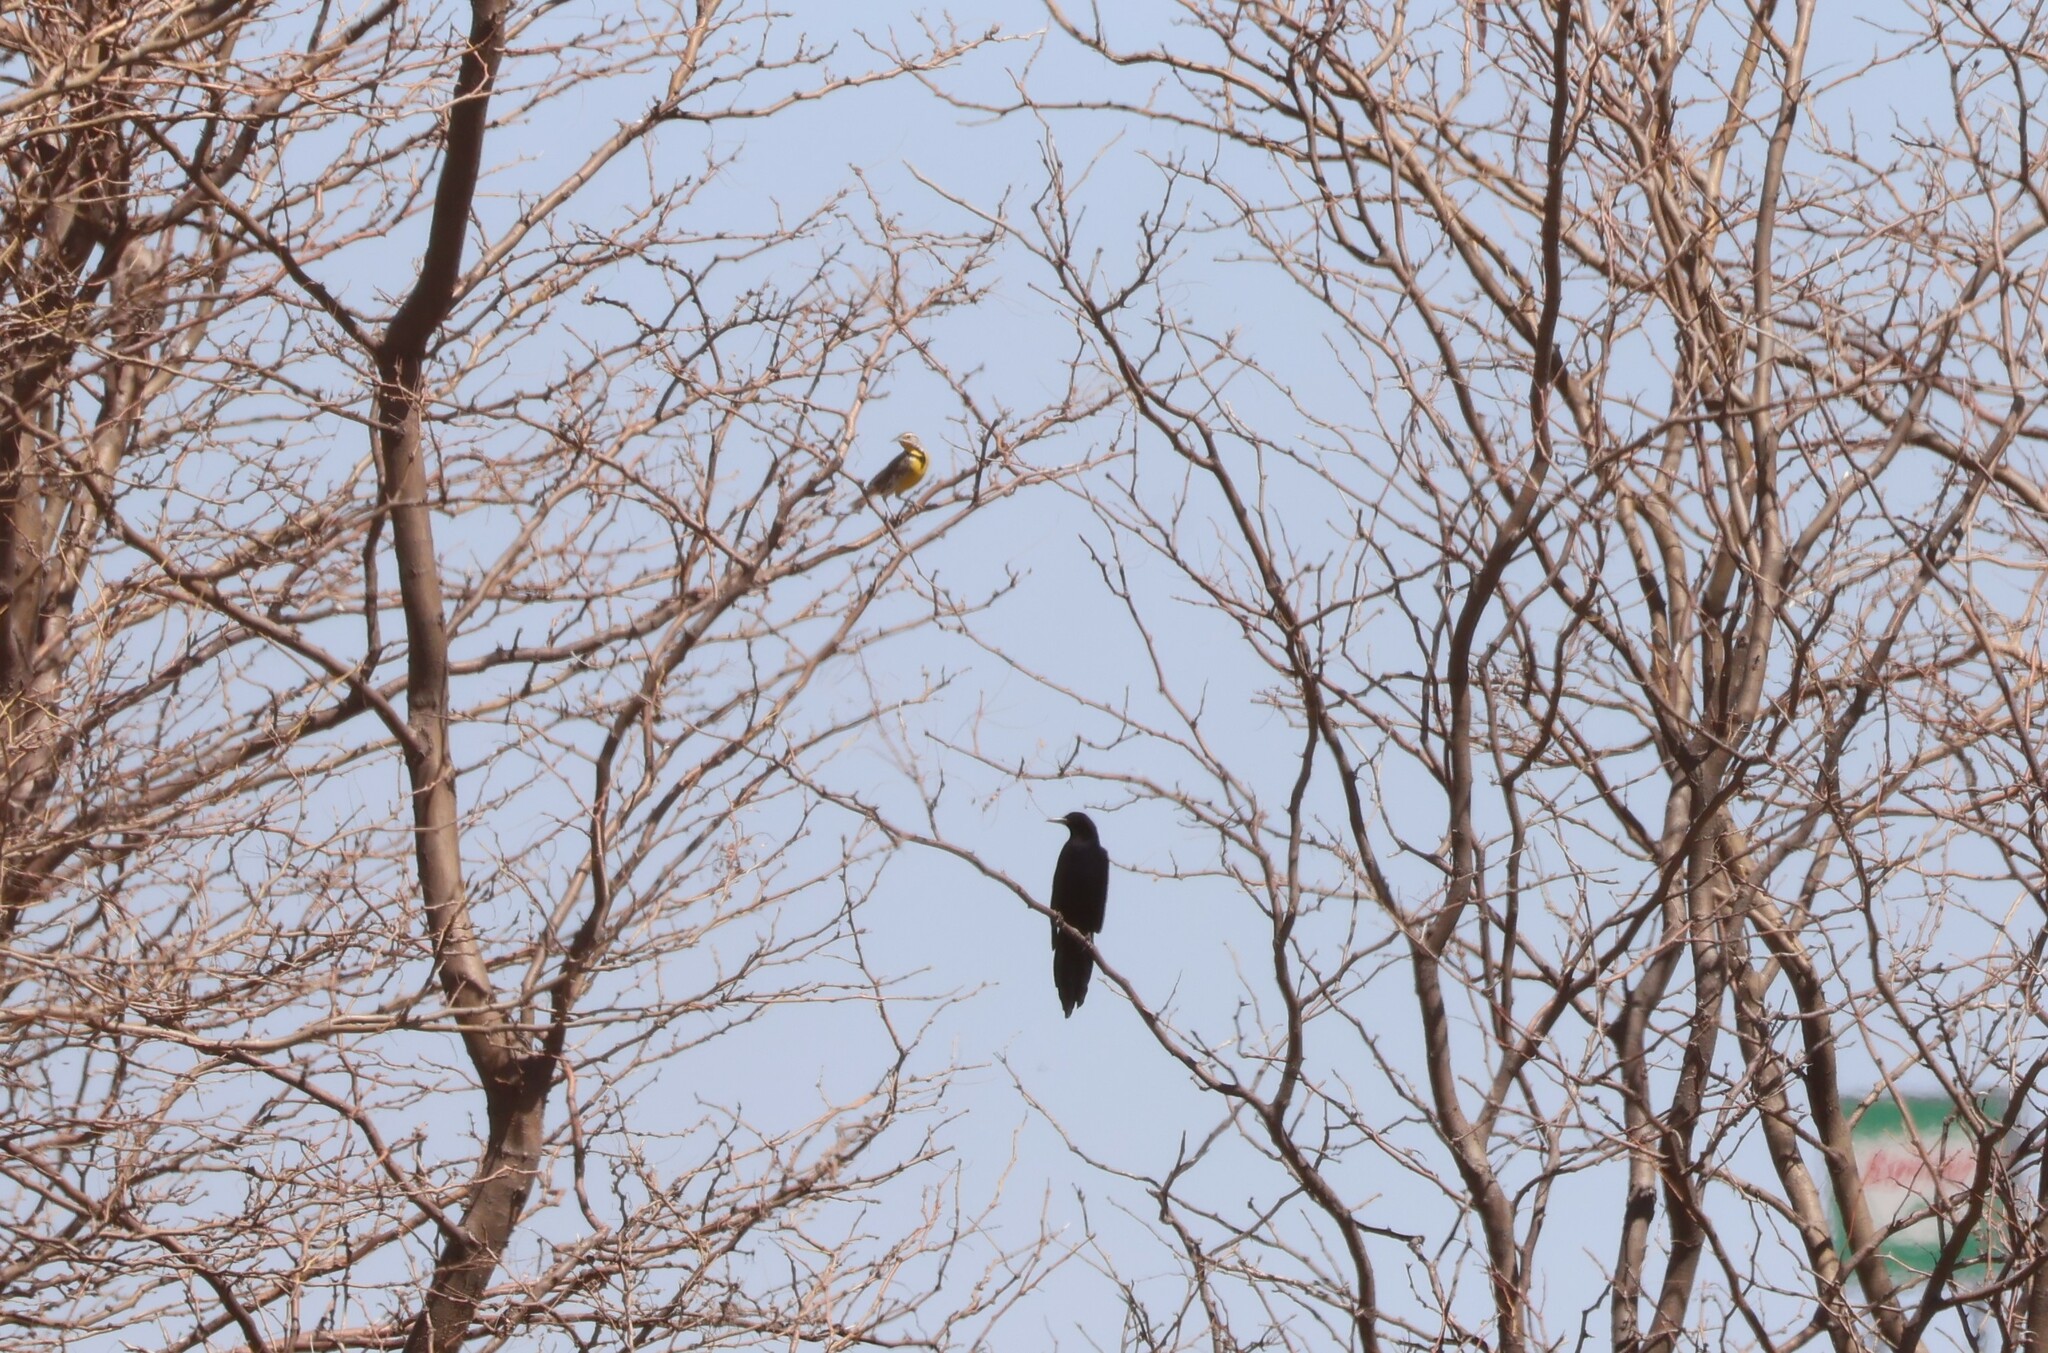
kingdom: Animalia
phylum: Chordata
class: Aves
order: Passeriformes
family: Icteridae
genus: Quiscalus
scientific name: Quiscalus mexicanus
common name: Great-tailed grackle
